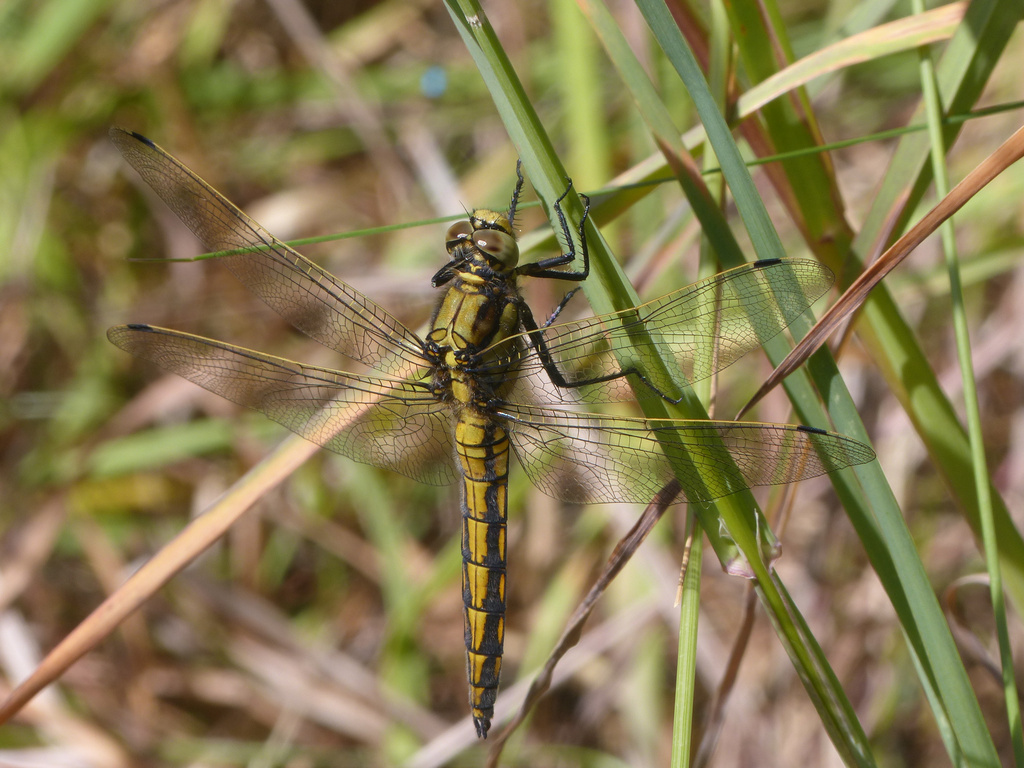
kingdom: Animalia
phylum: Arthropoda
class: Insecta
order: Odonata
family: Libellulidae
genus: Orthetrum
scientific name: Orthetrum cancellatum
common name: Black-tailed skimmer
